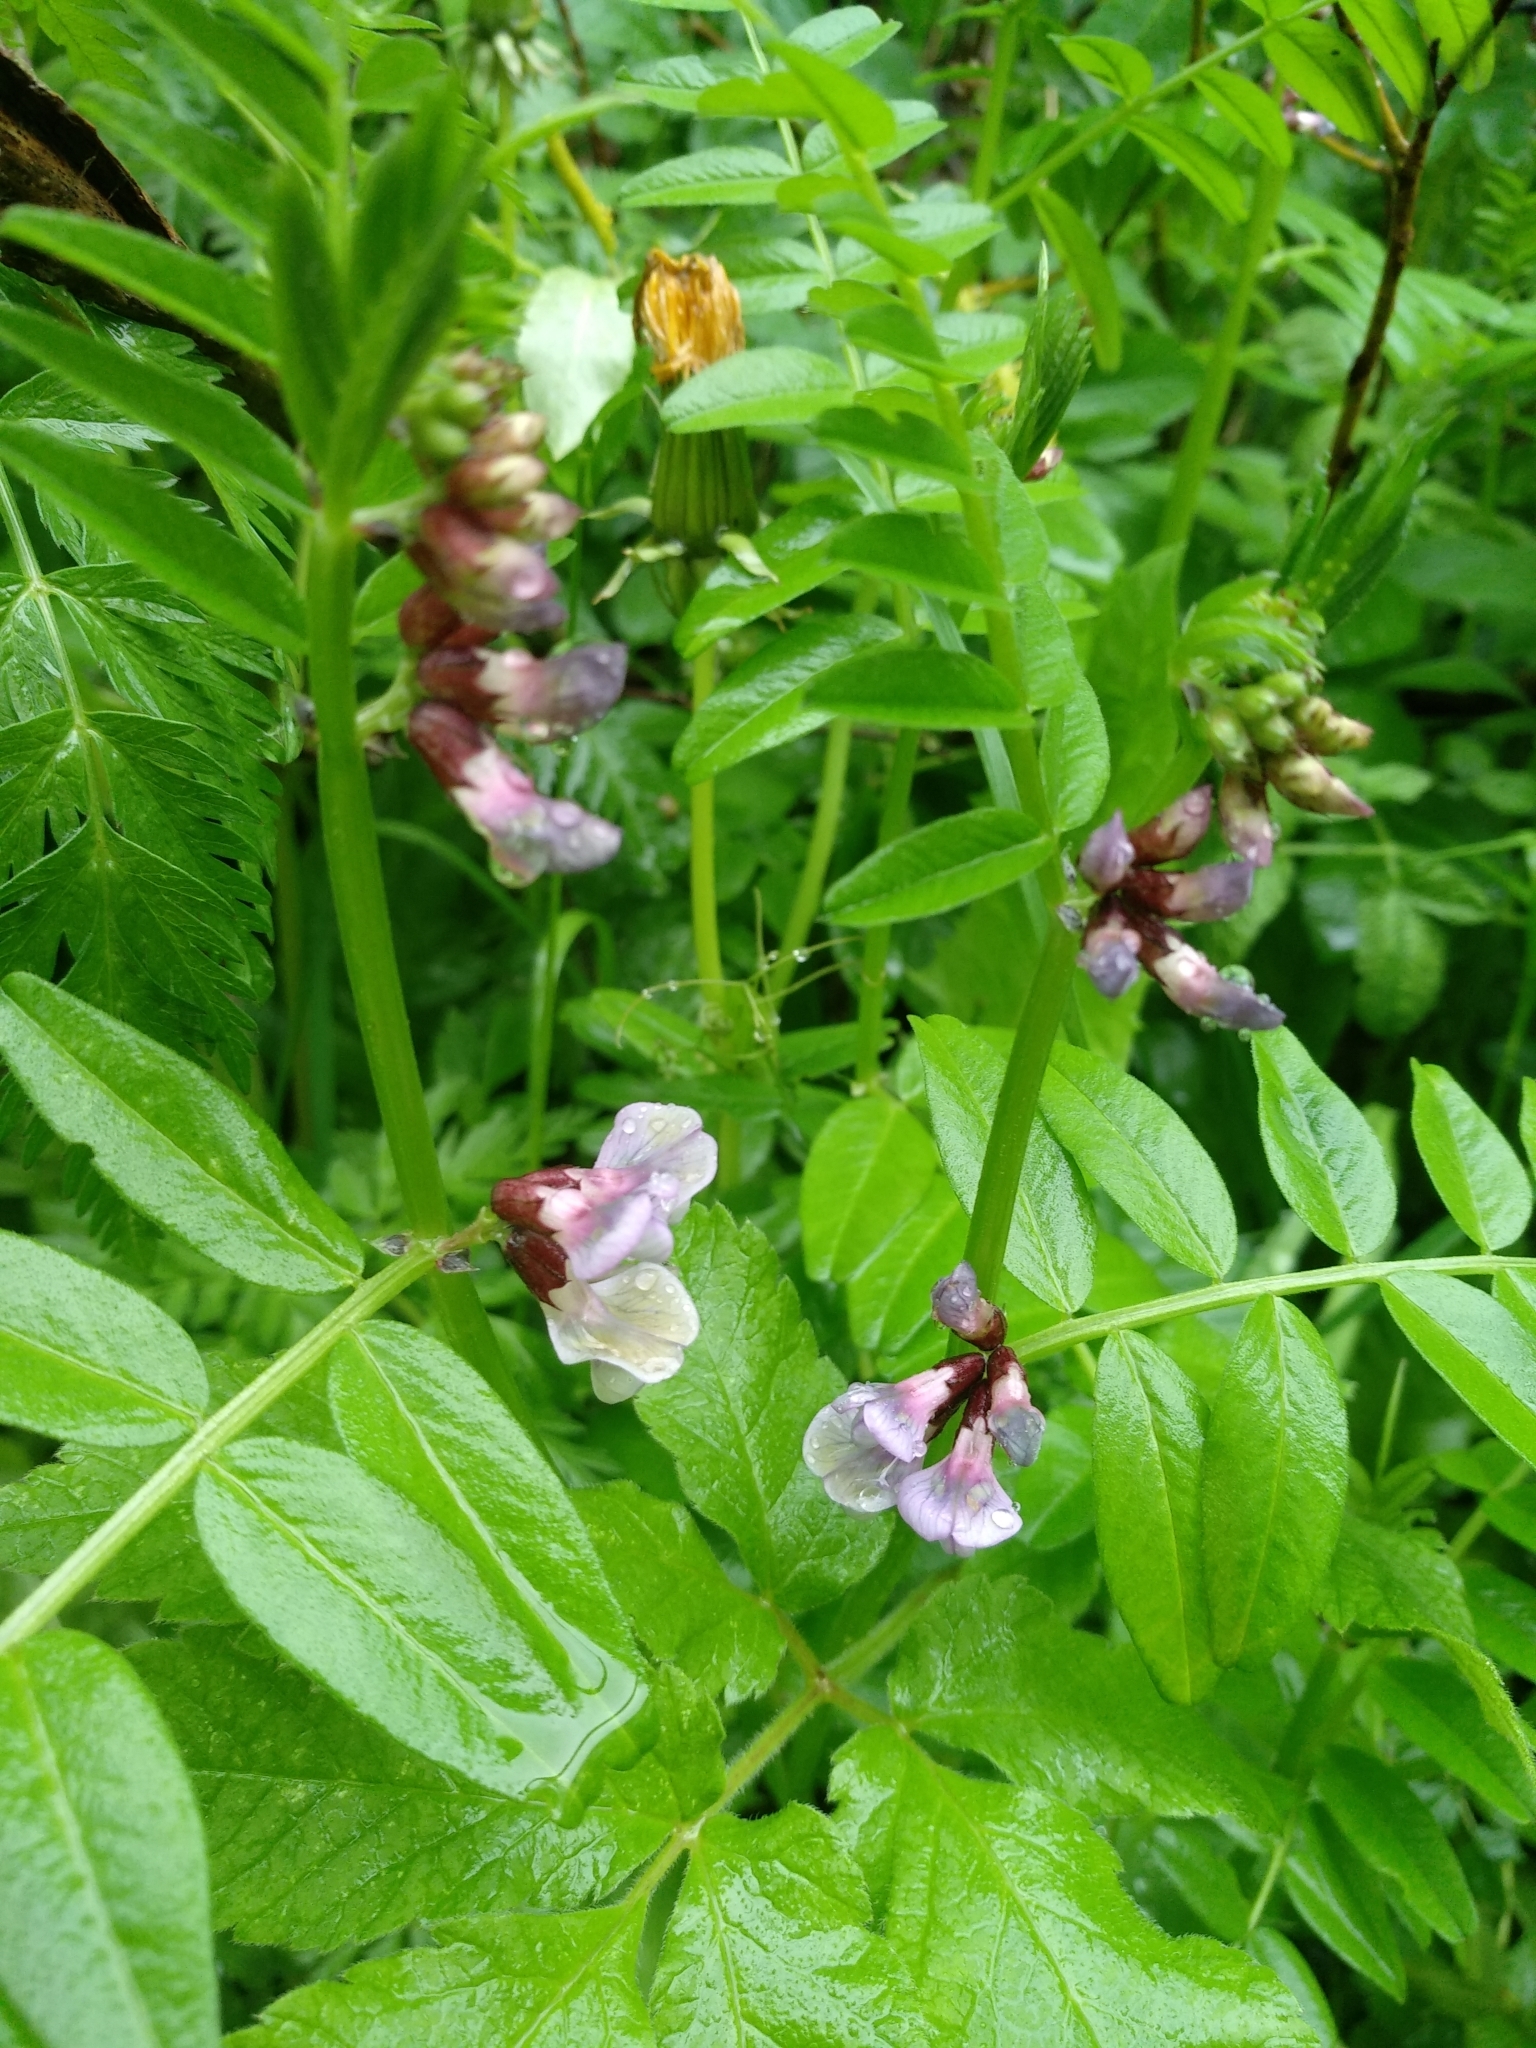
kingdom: Plantae
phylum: Tracheophyta
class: Magnoliopsida
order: Fabales
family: Fabaceae
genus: Vicia
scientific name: Vicia sepium
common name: Bush vetch
